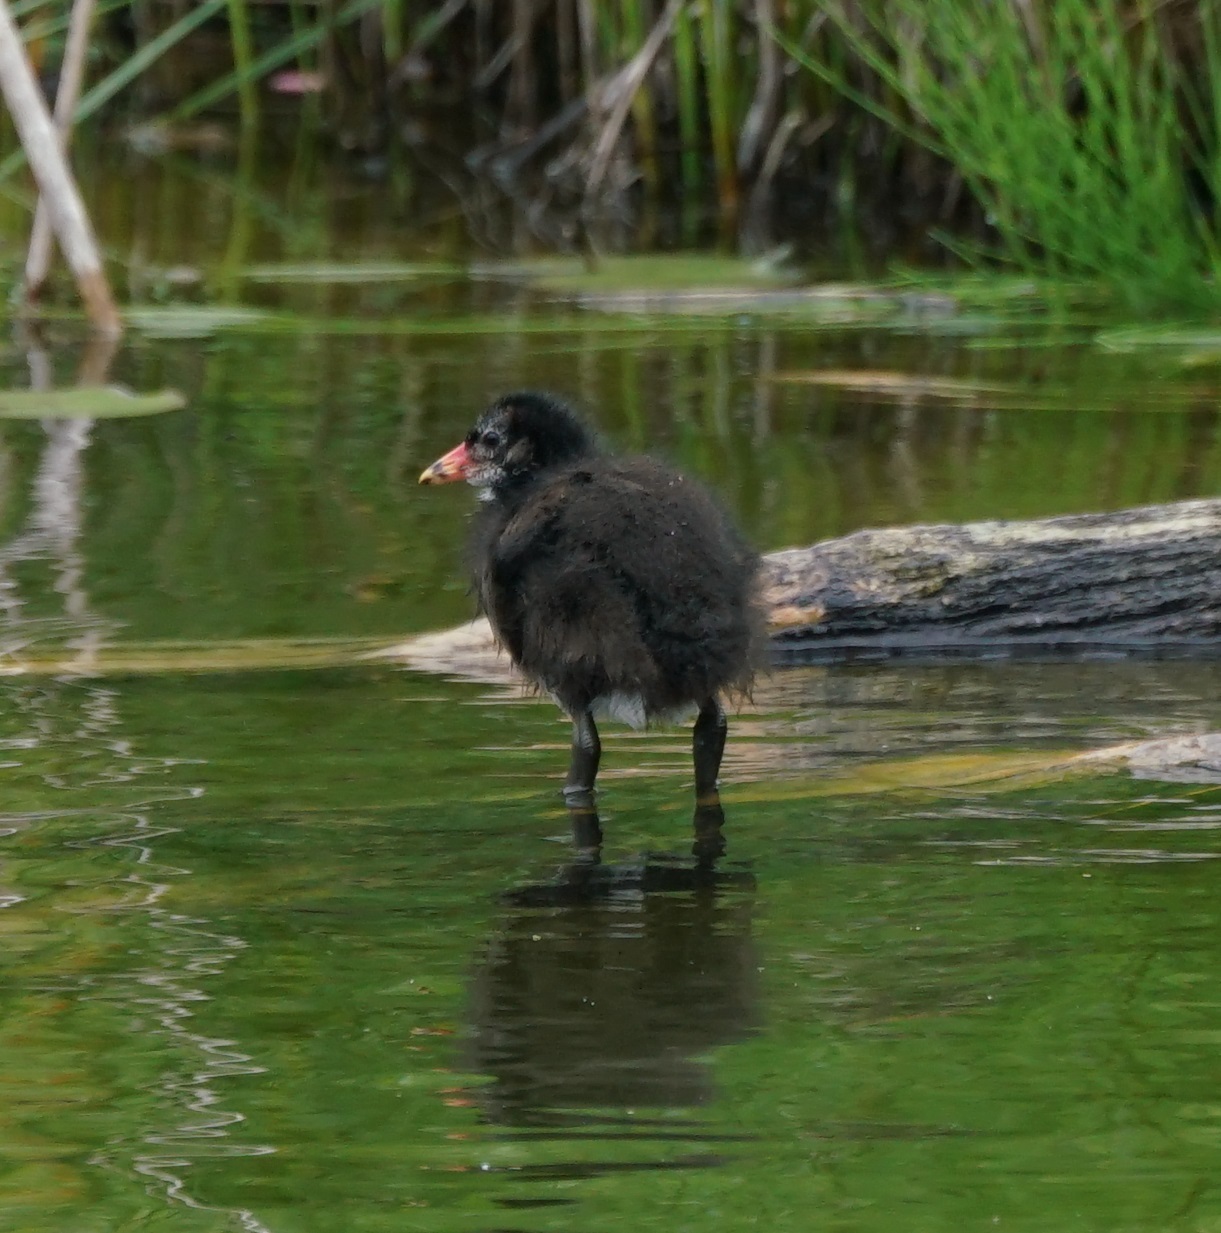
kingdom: Animalia
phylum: Chordata
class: Aves
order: Gruiformes
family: Rallidae
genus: Gallinula
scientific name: Gallinula chloropus
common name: Common moorhen
